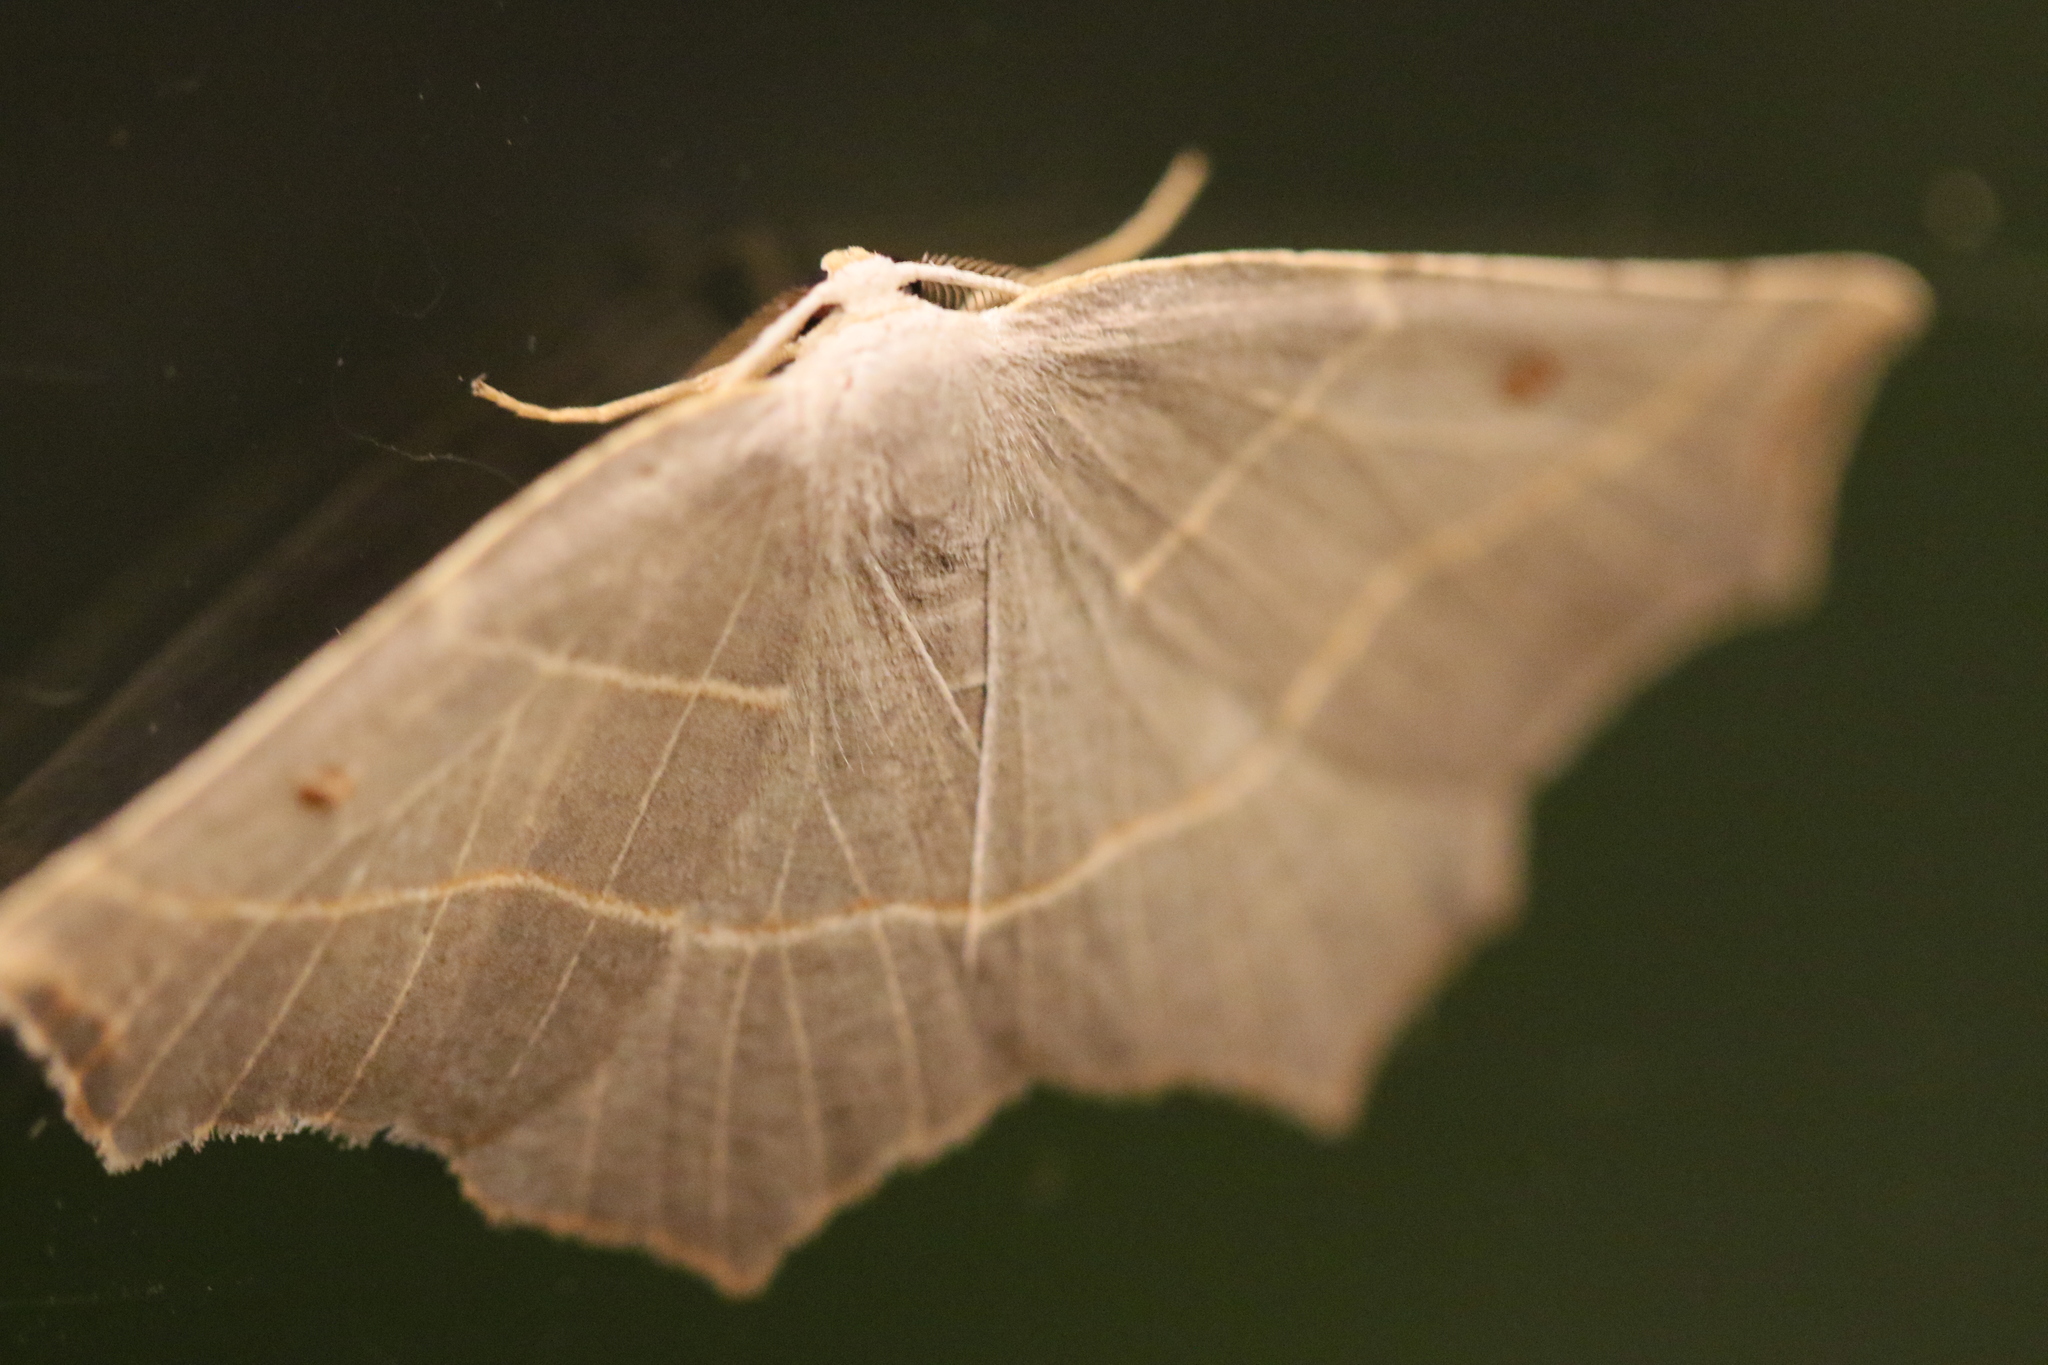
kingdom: Animalia
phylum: Arthropoda
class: Insecta
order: Lepidoptera
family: Geometridae
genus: Metanema
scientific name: Metanema inatomaria
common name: Pale metanema
